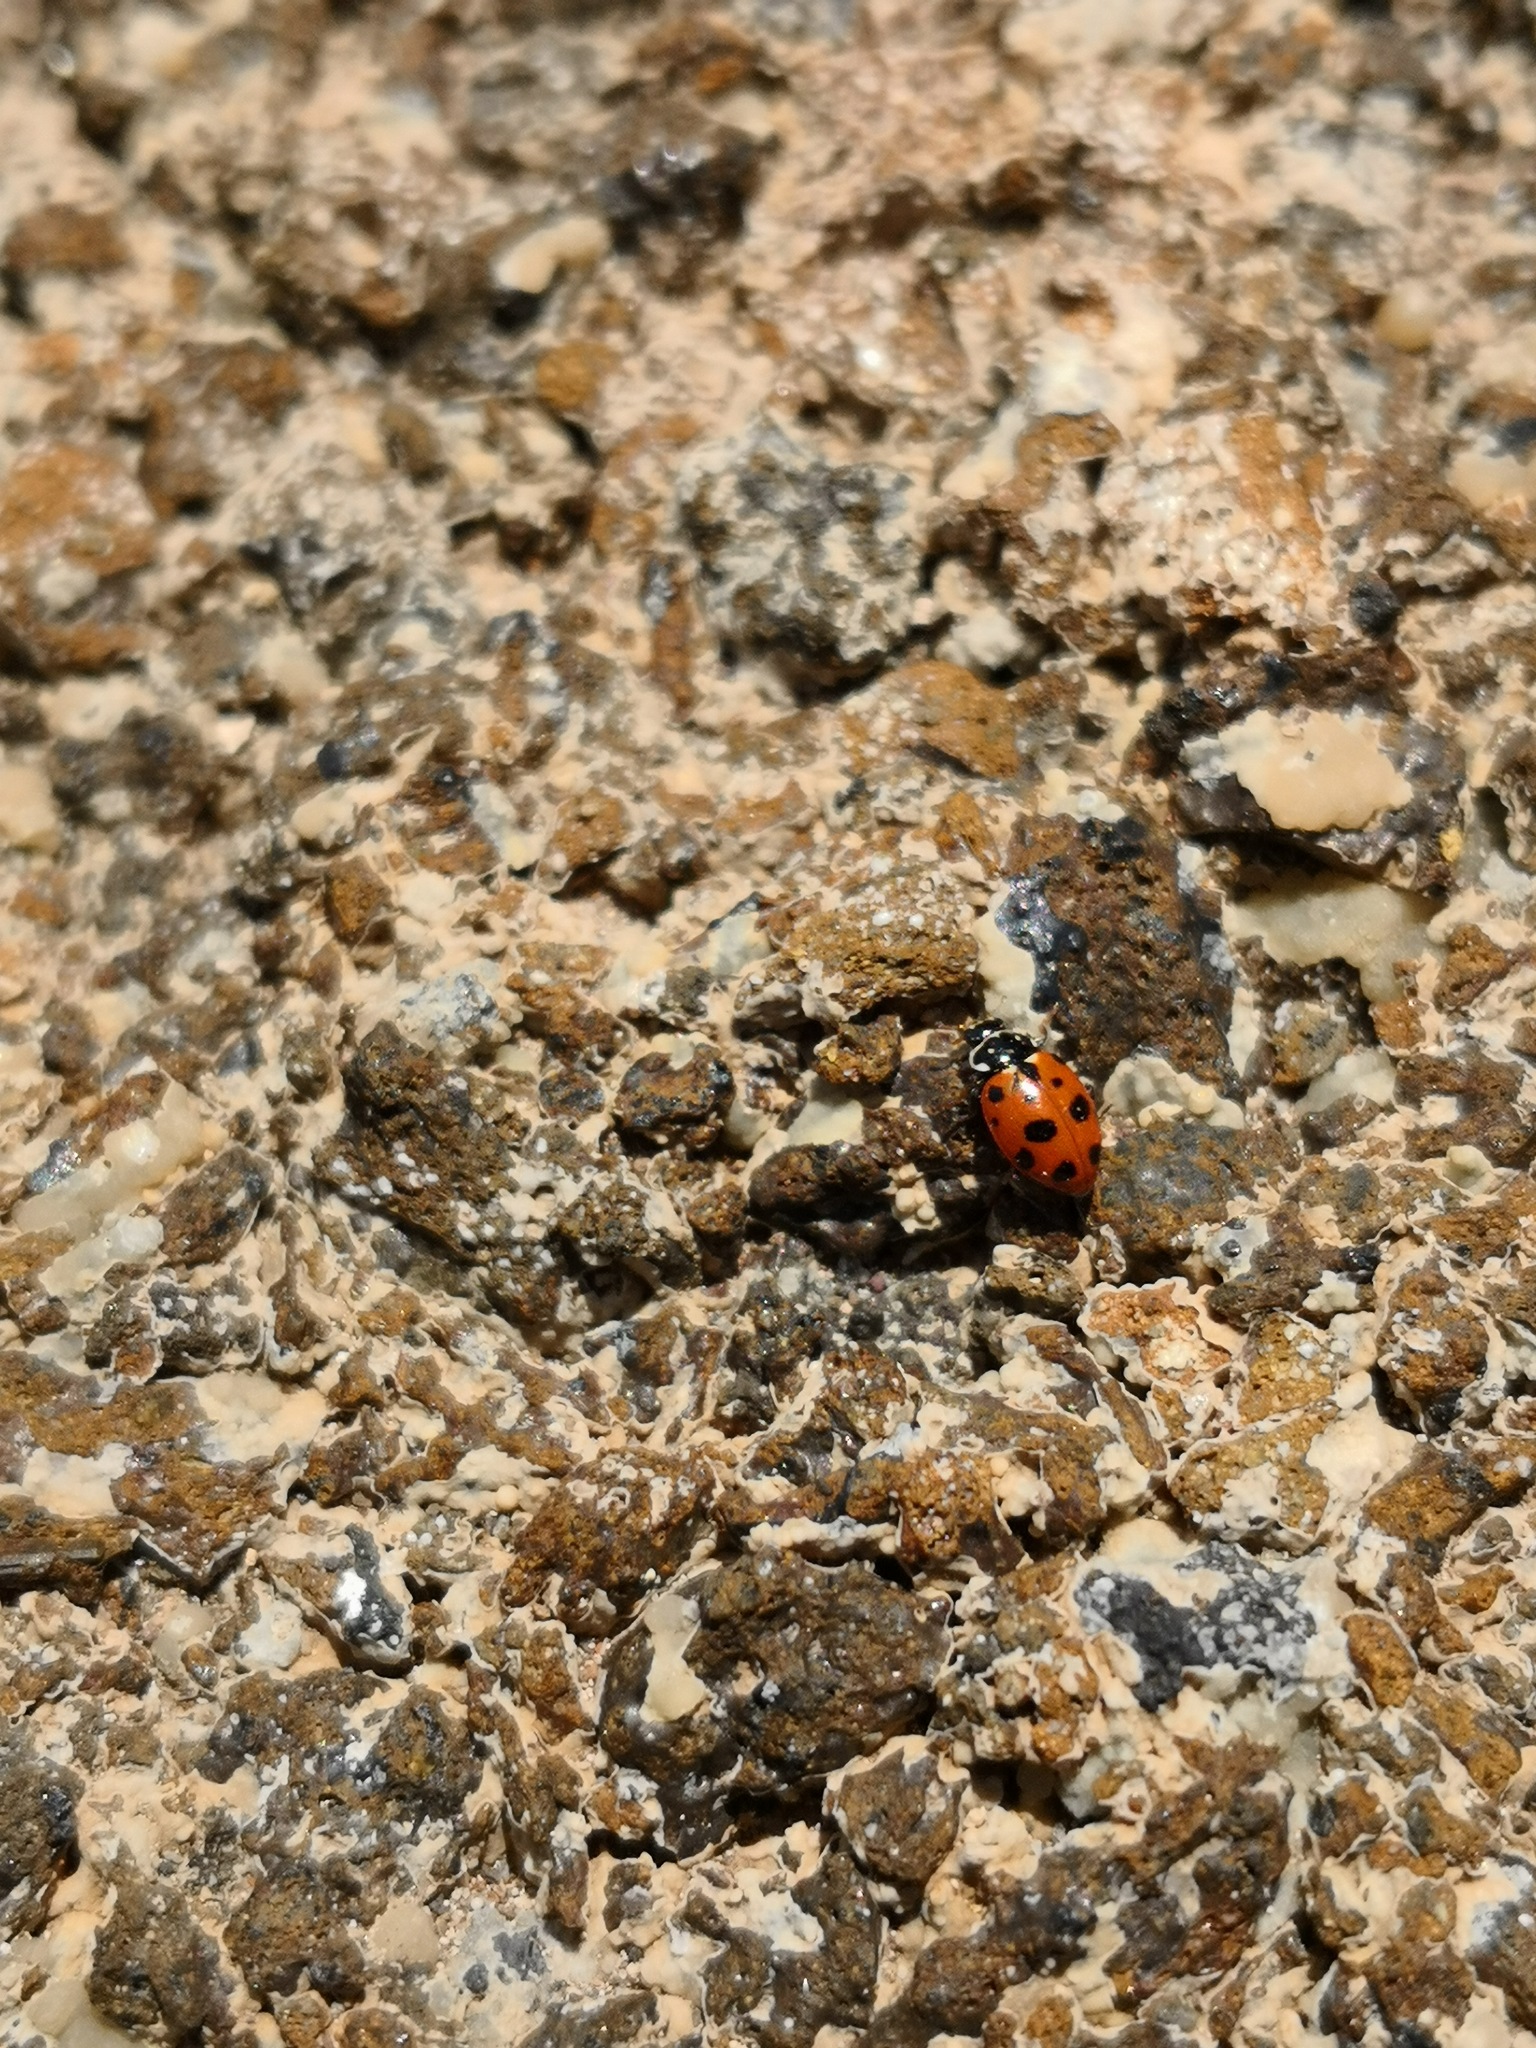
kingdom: Animalia
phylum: Arthropoda
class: Insecta
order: Coleoptera
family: Coccinellidae
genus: Hippodamia
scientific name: Hippodamia variegata
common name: Ladybird beetle
